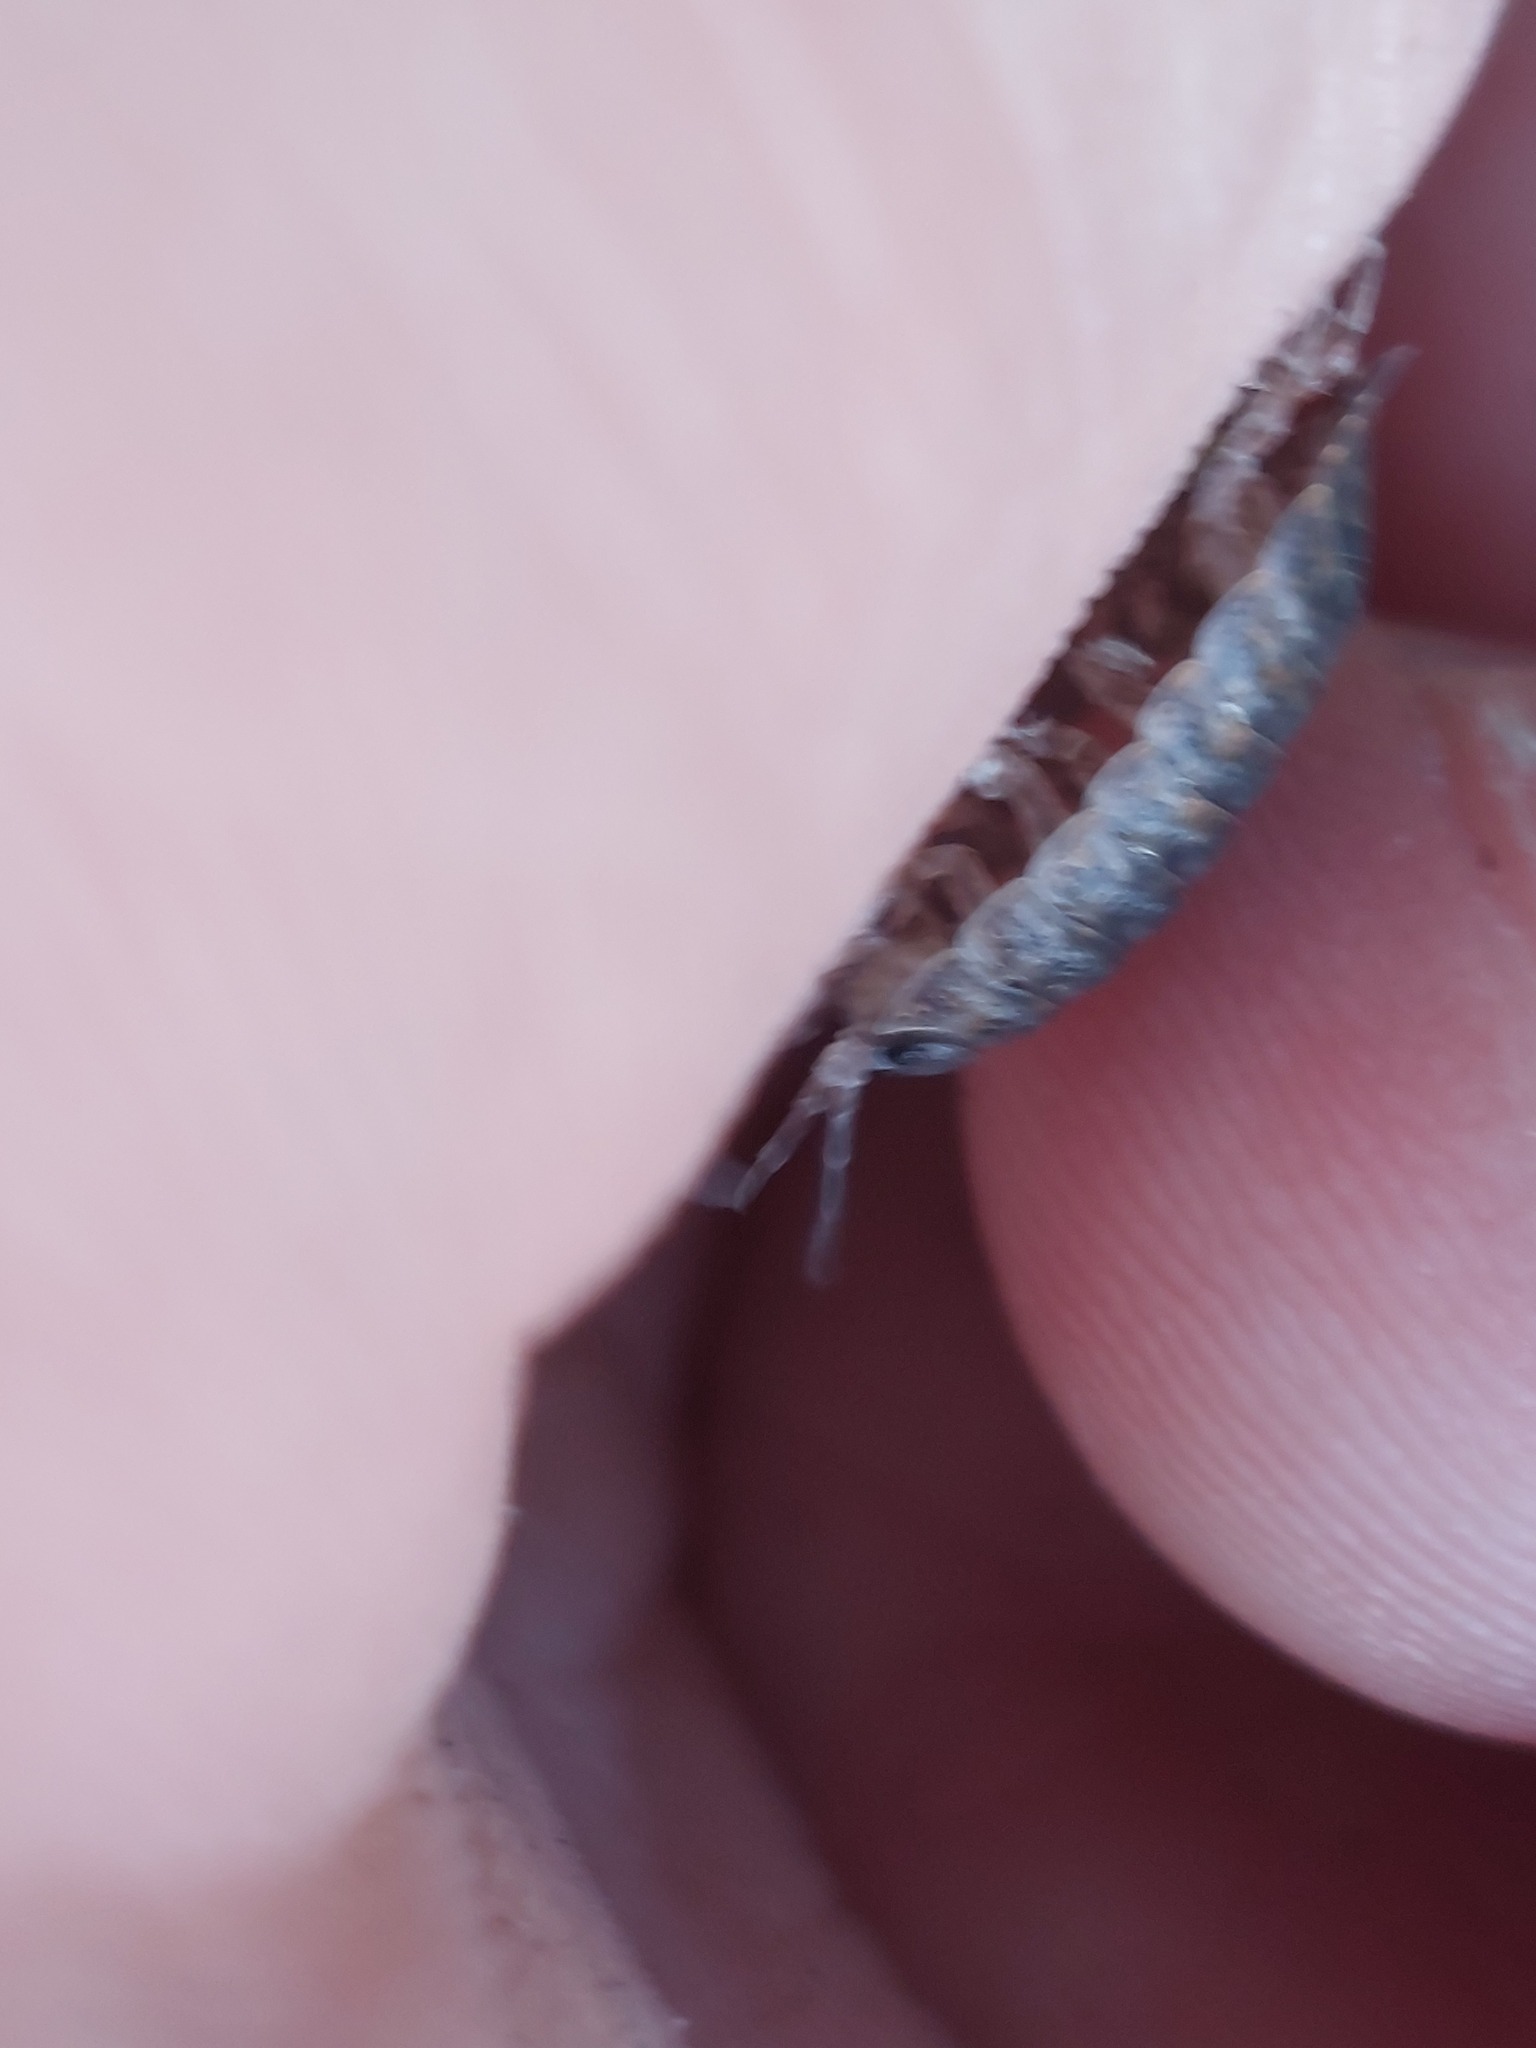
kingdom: Animalia
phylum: Arthropoda
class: Malacostraca
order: Isopoda
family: Trachelipodidae
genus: Trachelipus
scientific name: Trachelipus rathkii
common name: Isopod
